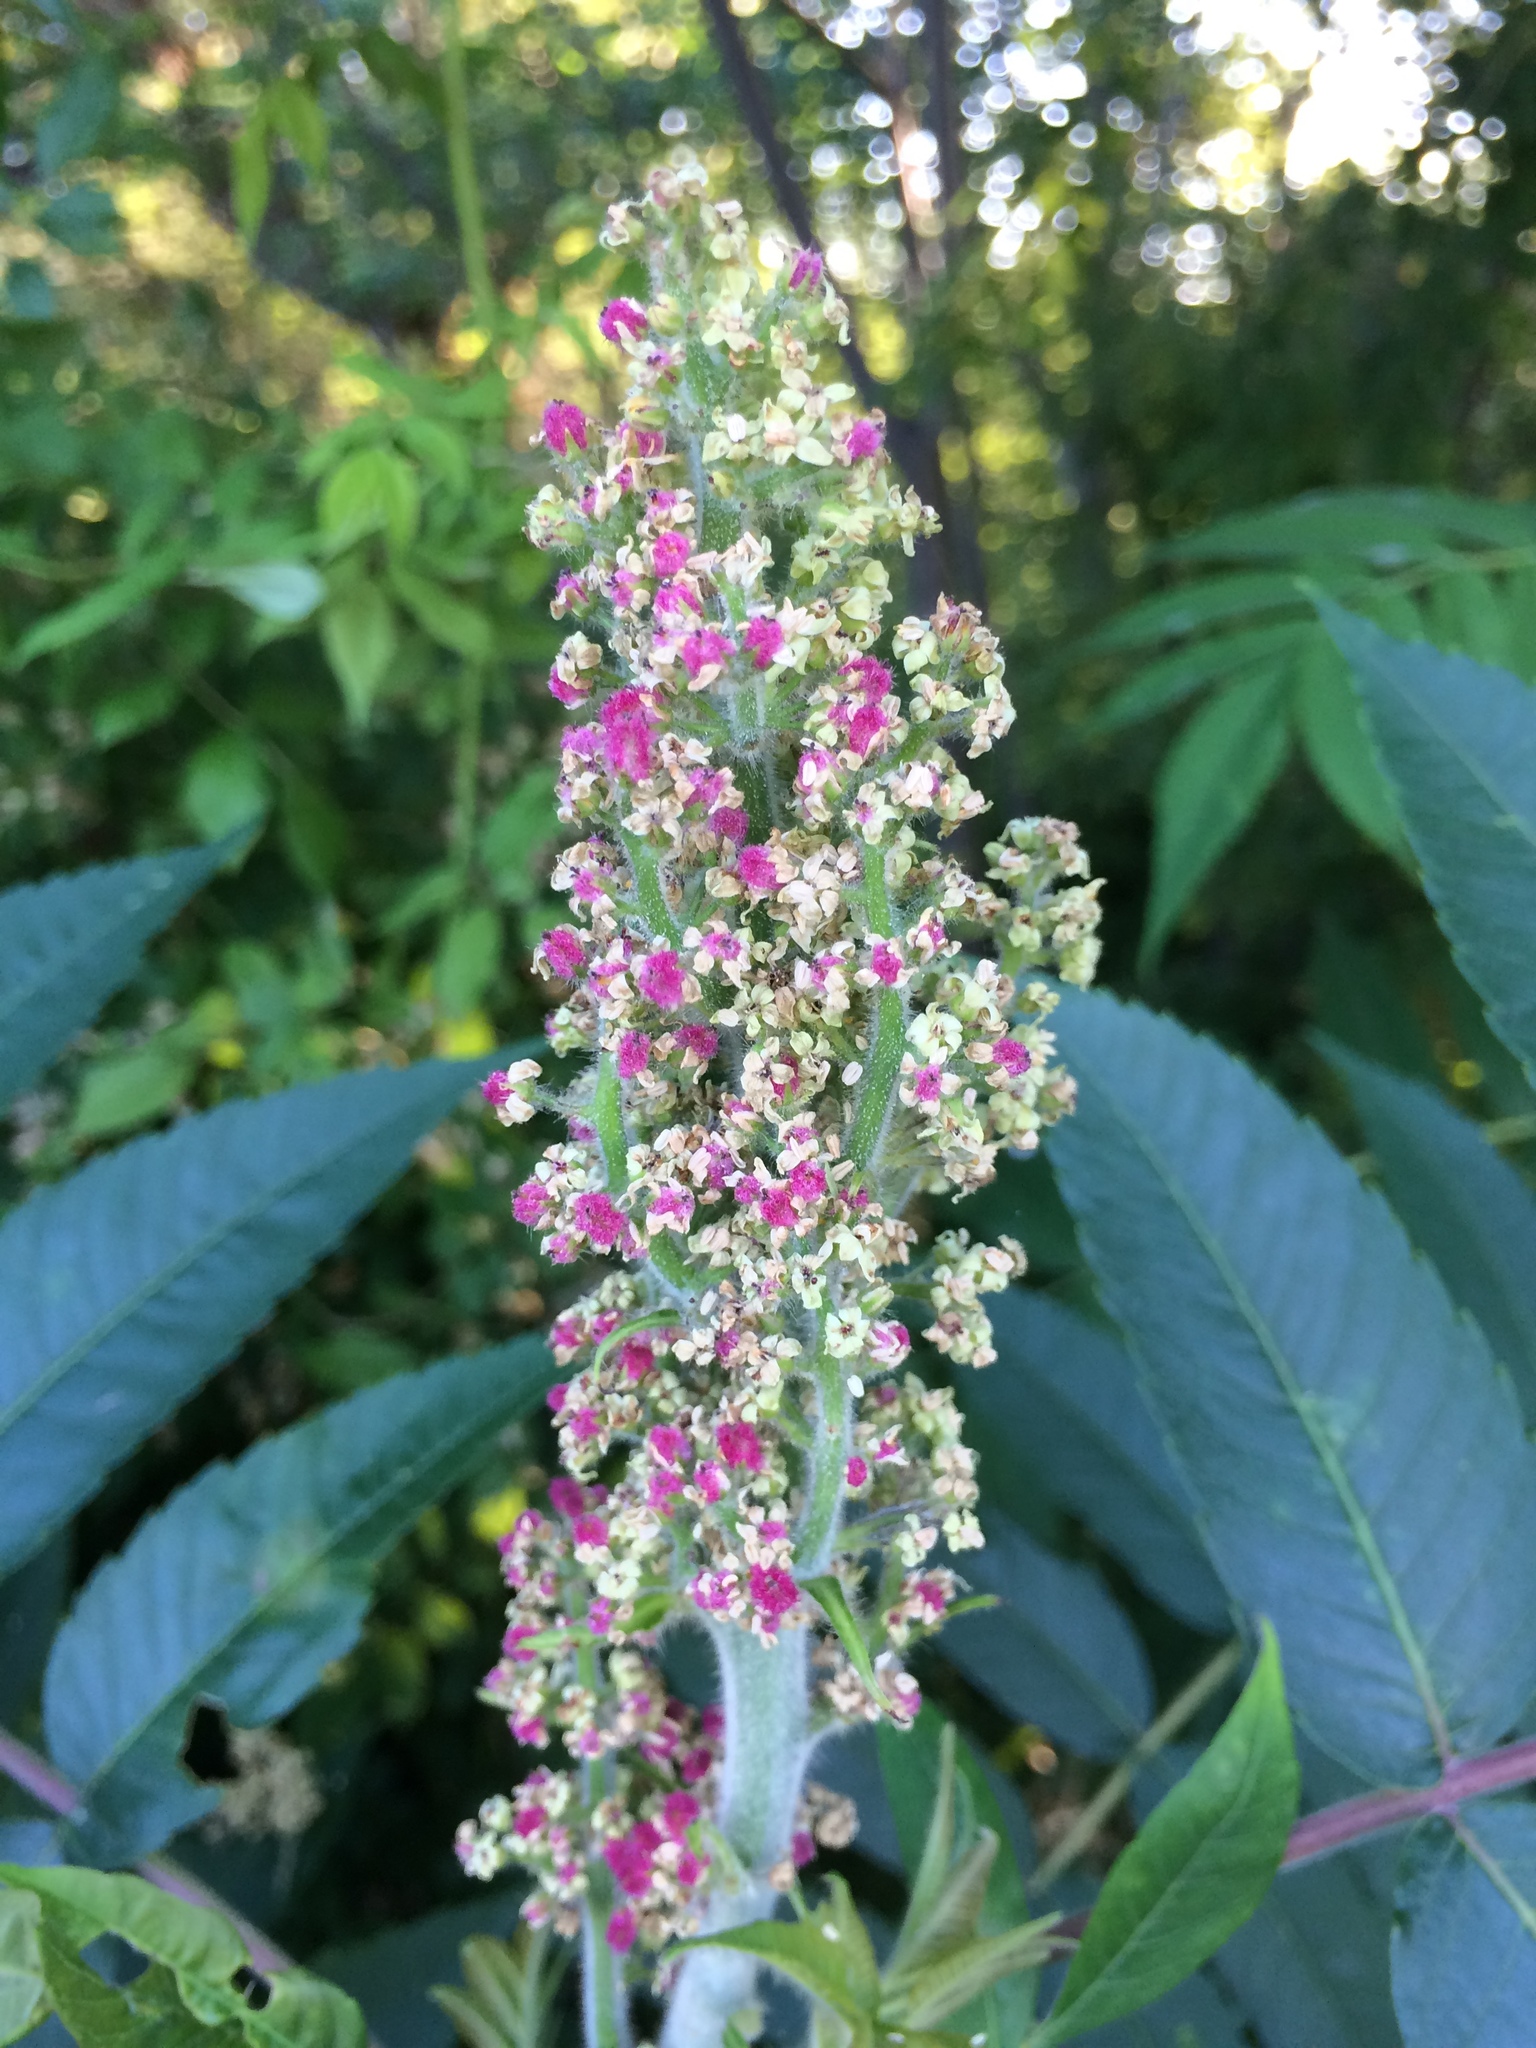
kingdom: Plantae
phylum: Tracheophyta
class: Magnoliopsida
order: Sapindales
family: Anacardiaceae
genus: Rhus
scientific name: Rhus typhina
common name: Staghorn sumac
